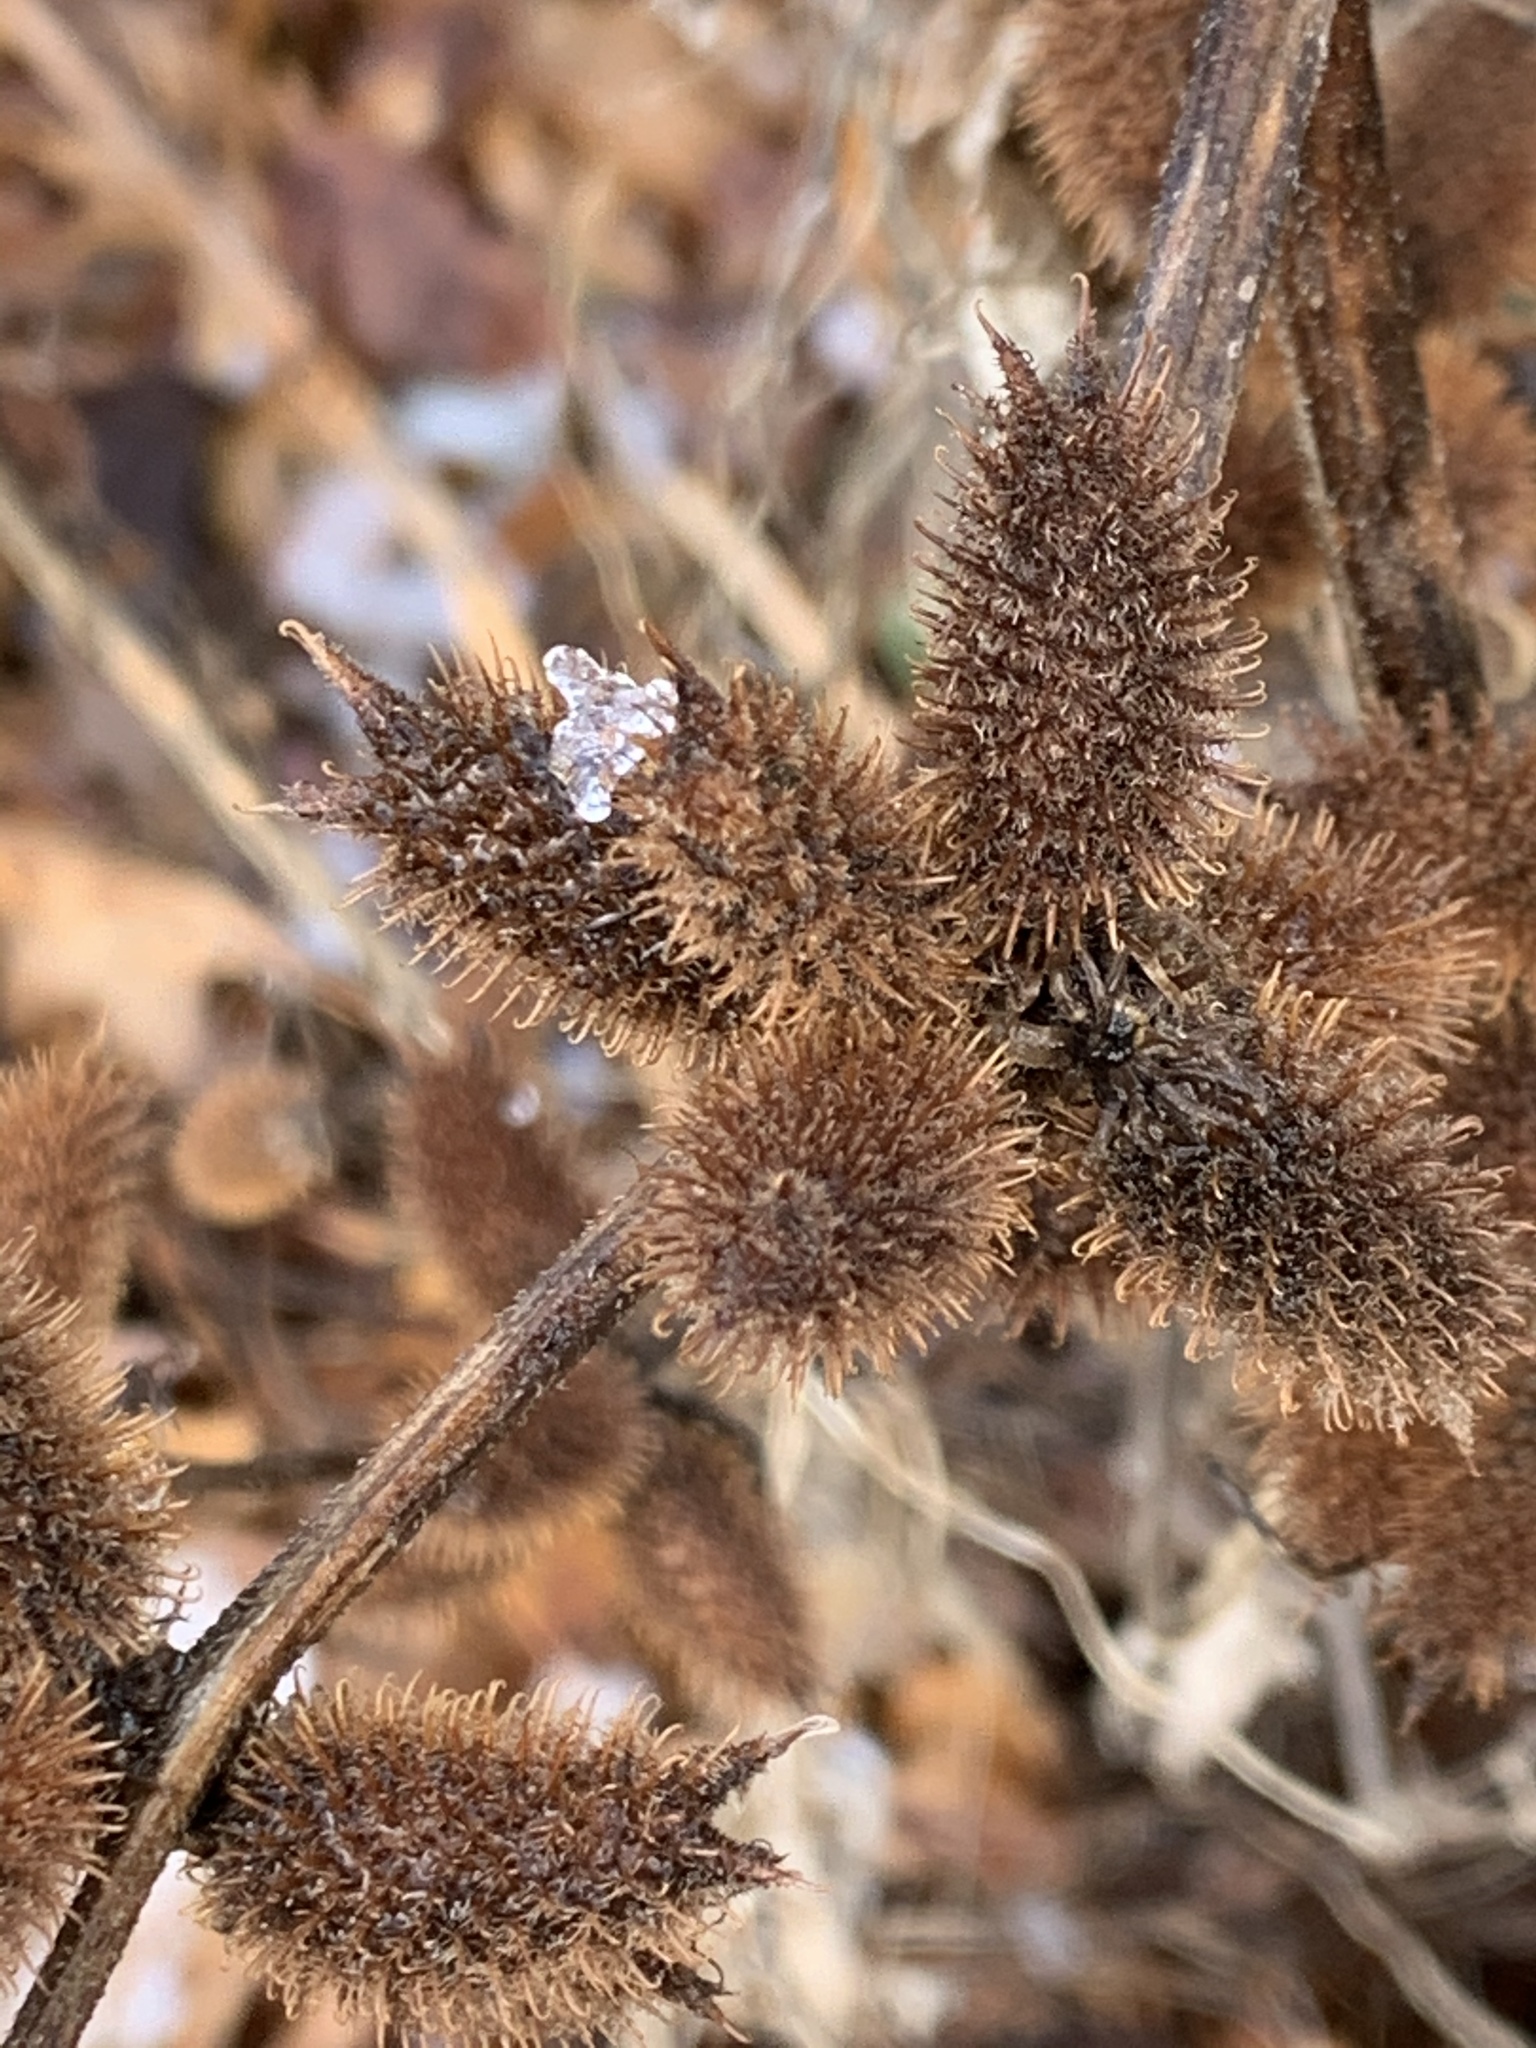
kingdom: Plantae
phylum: Tracheophyta
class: Magnoliopsida
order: Asterales
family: Asteraceae
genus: Xanthium
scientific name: Xanthium strumarium
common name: Rough cocklebur
